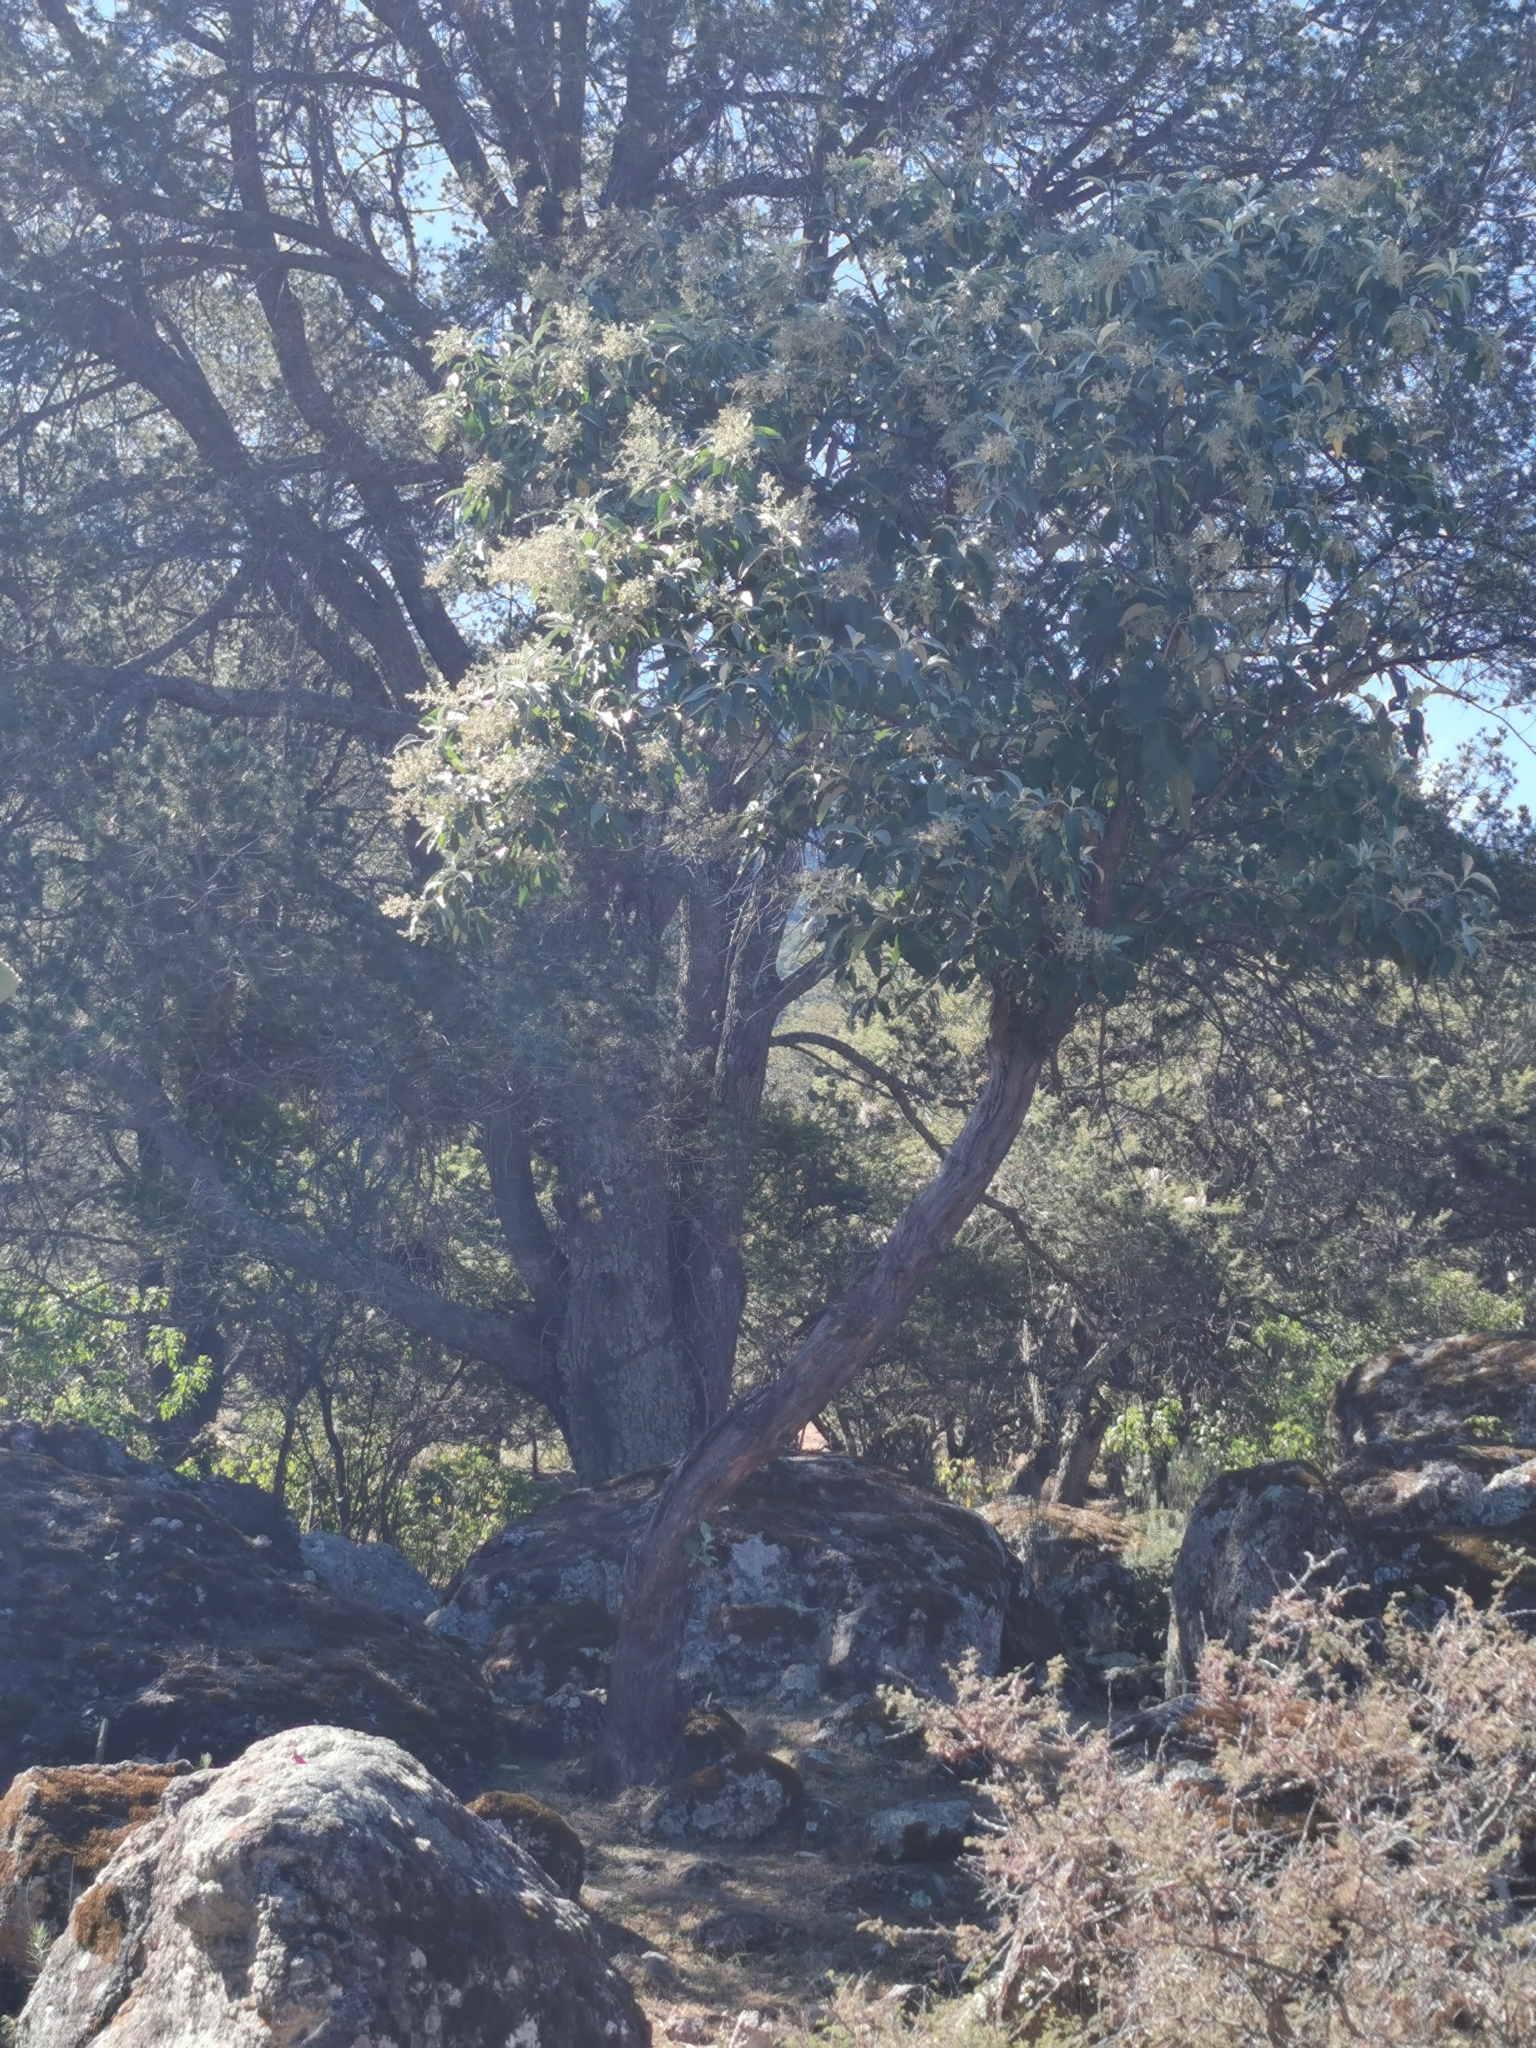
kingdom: Plantae
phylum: Tracheophyta
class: Magnoliopsida
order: Lamiales
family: Scrophulariaceae
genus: Buddleja
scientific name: Buddleja cordata
